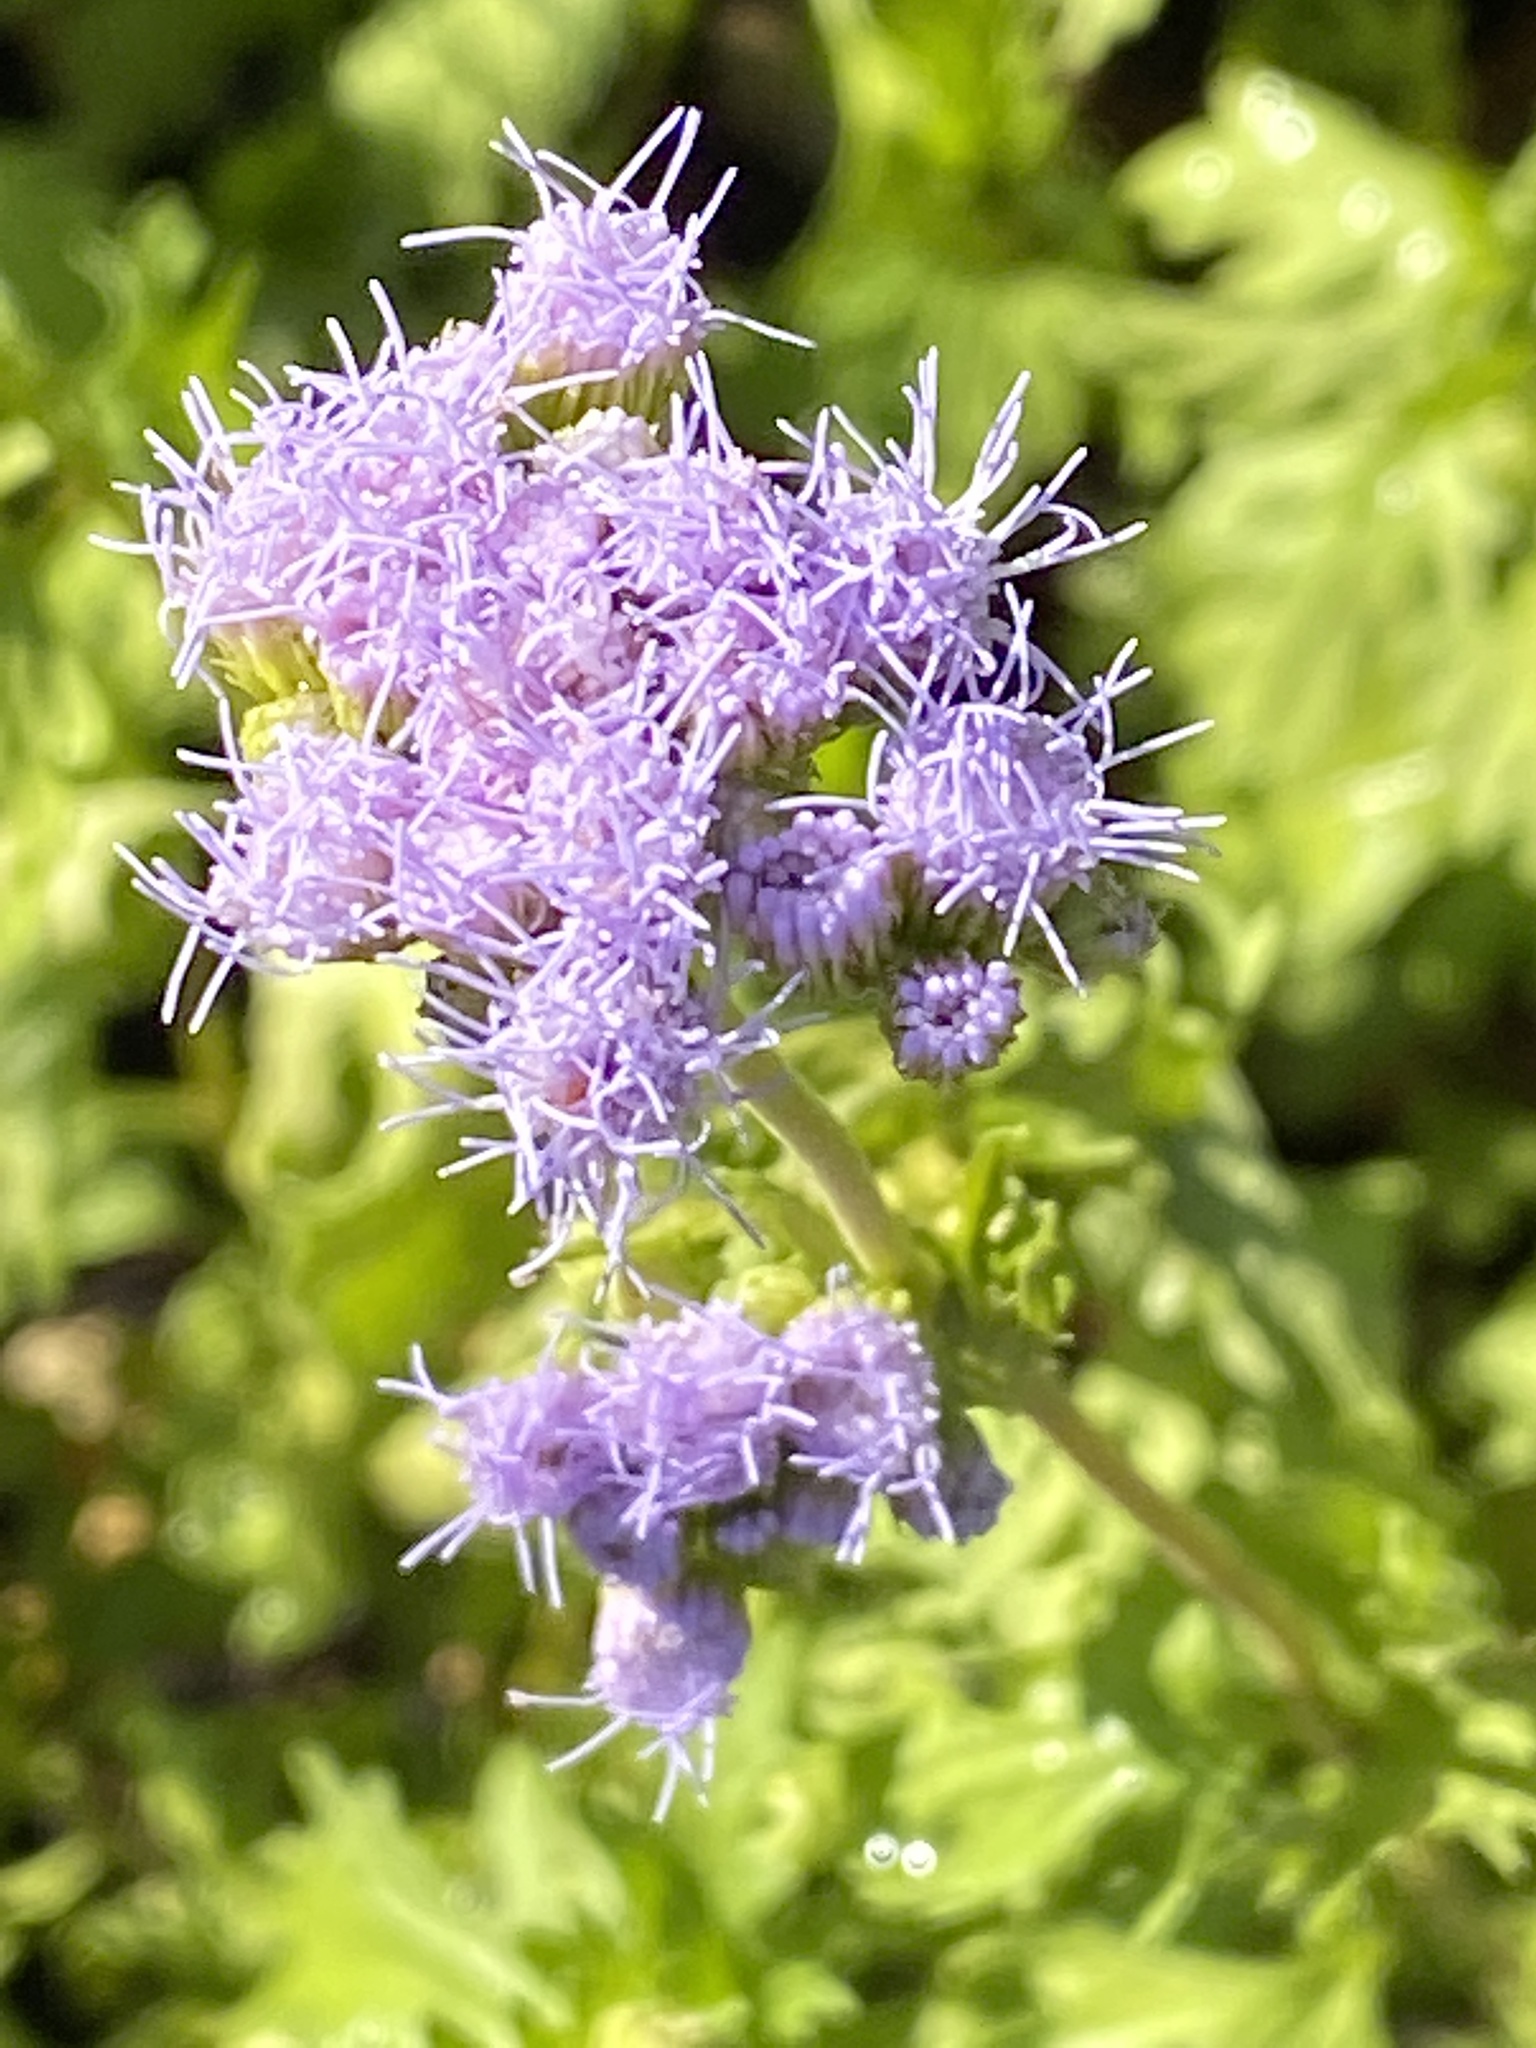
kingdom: Plantae
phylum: Tracheophyta
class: Magnoliopsida
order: Asterales
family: Asteraceae
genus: Conoclinium
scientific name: Conoclinium dissectum
